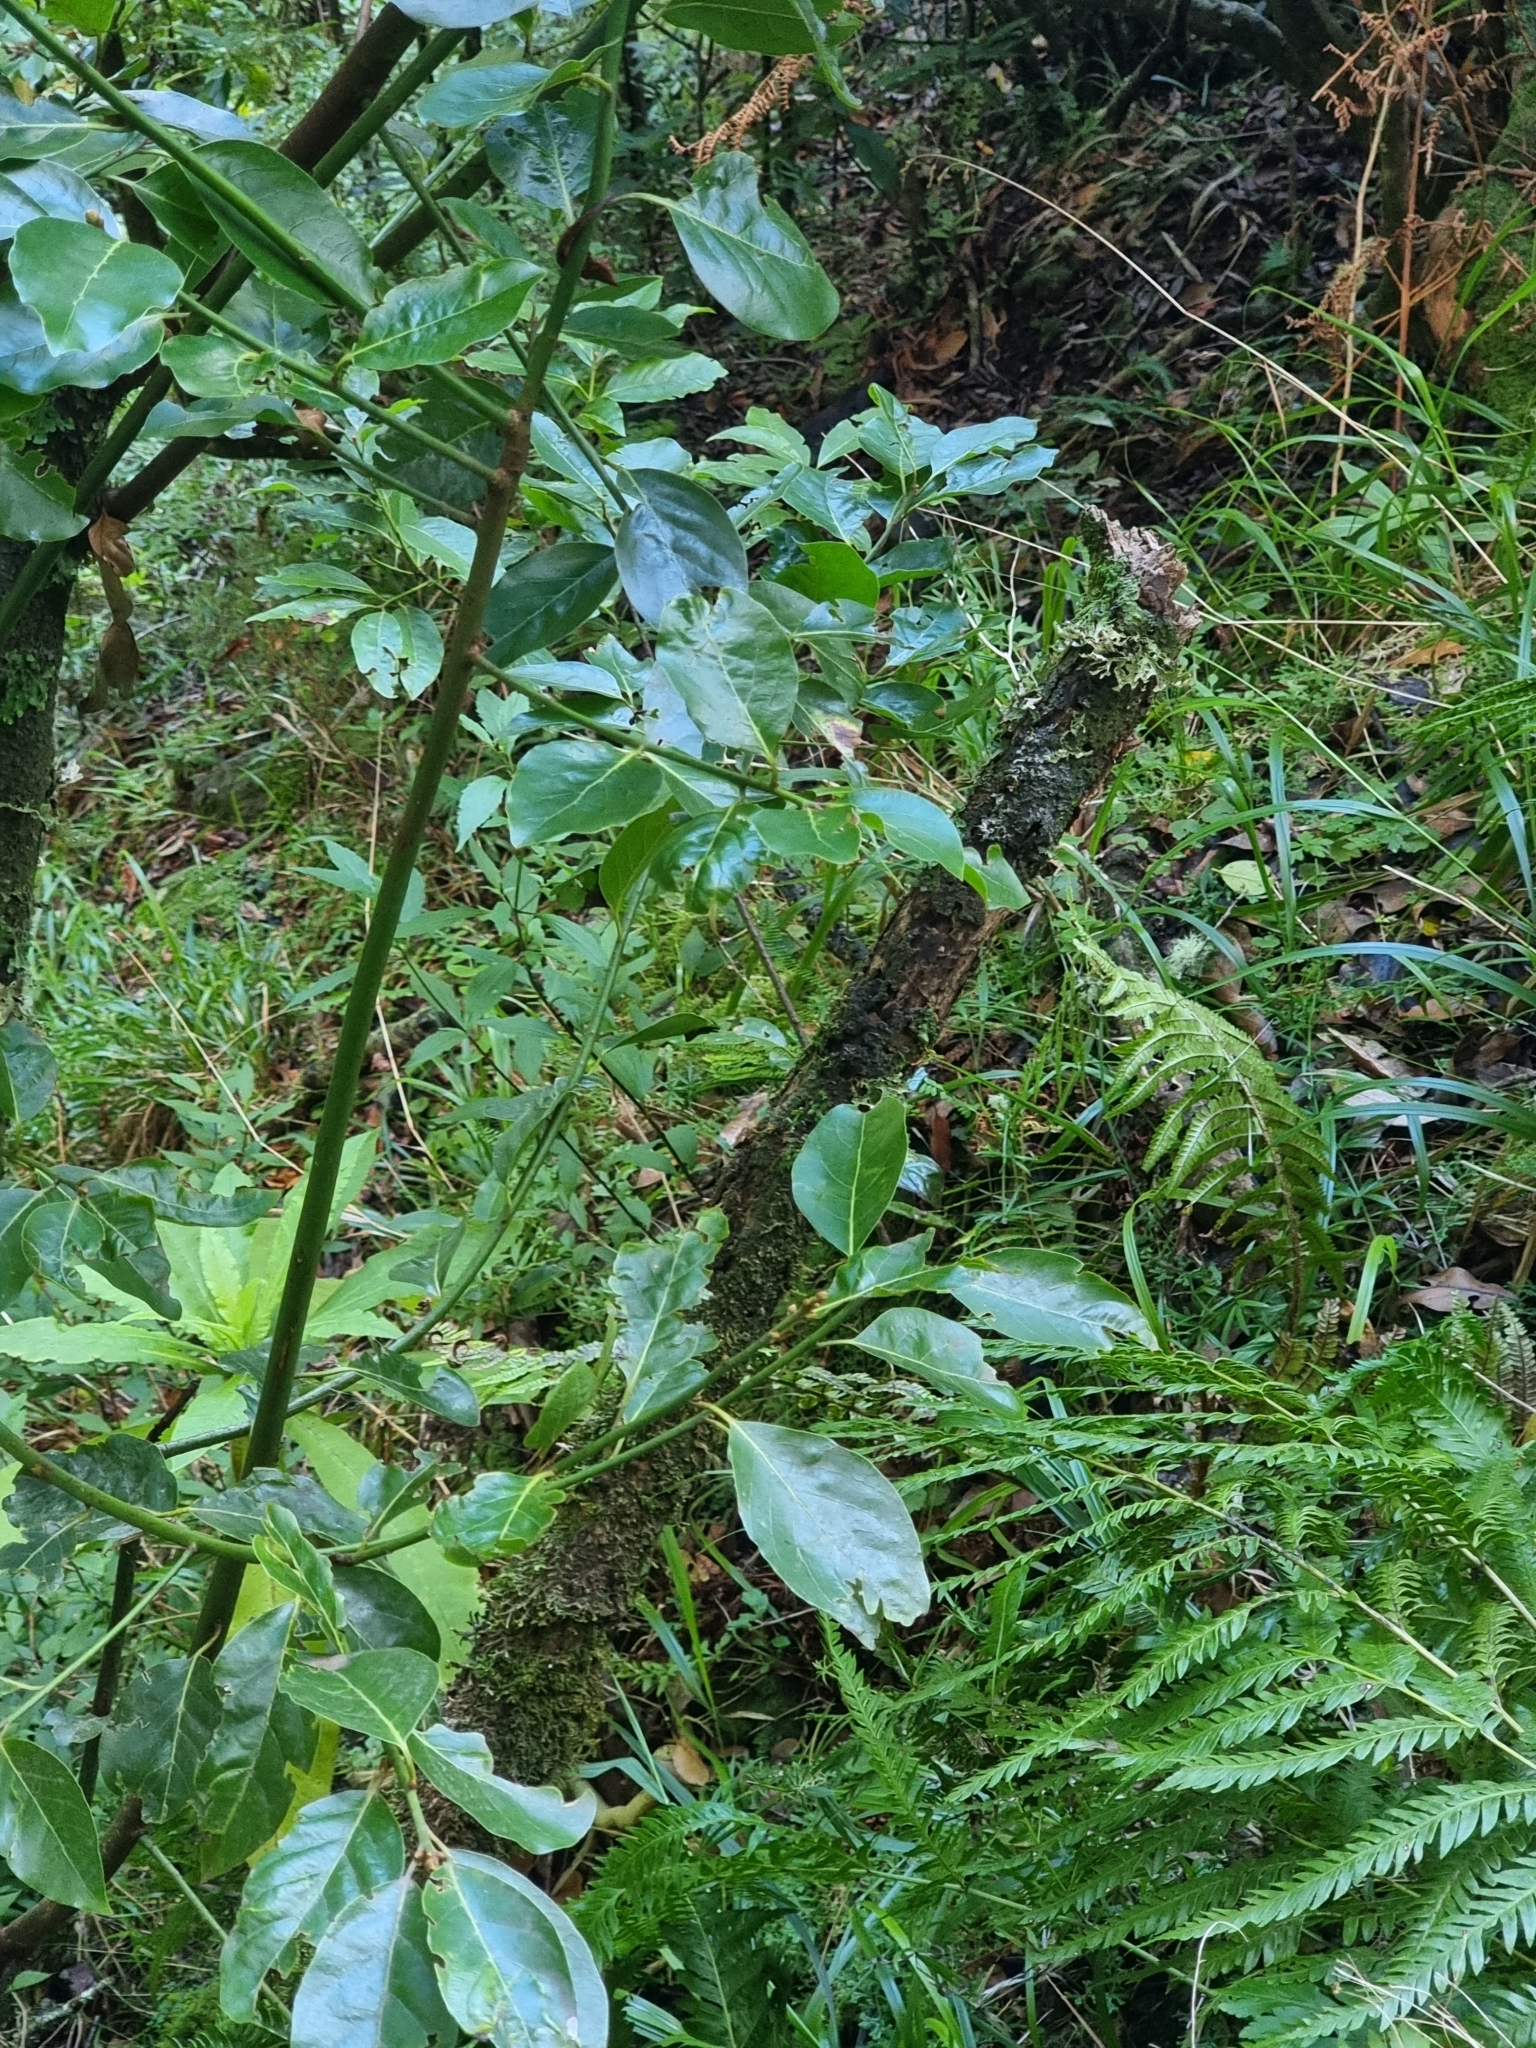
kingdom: Plantae
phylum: Tracheophyta
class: Magnoliopsida
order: Laurales
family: Lauraceae
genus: Laurus
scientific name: Laurus novocanariensis
